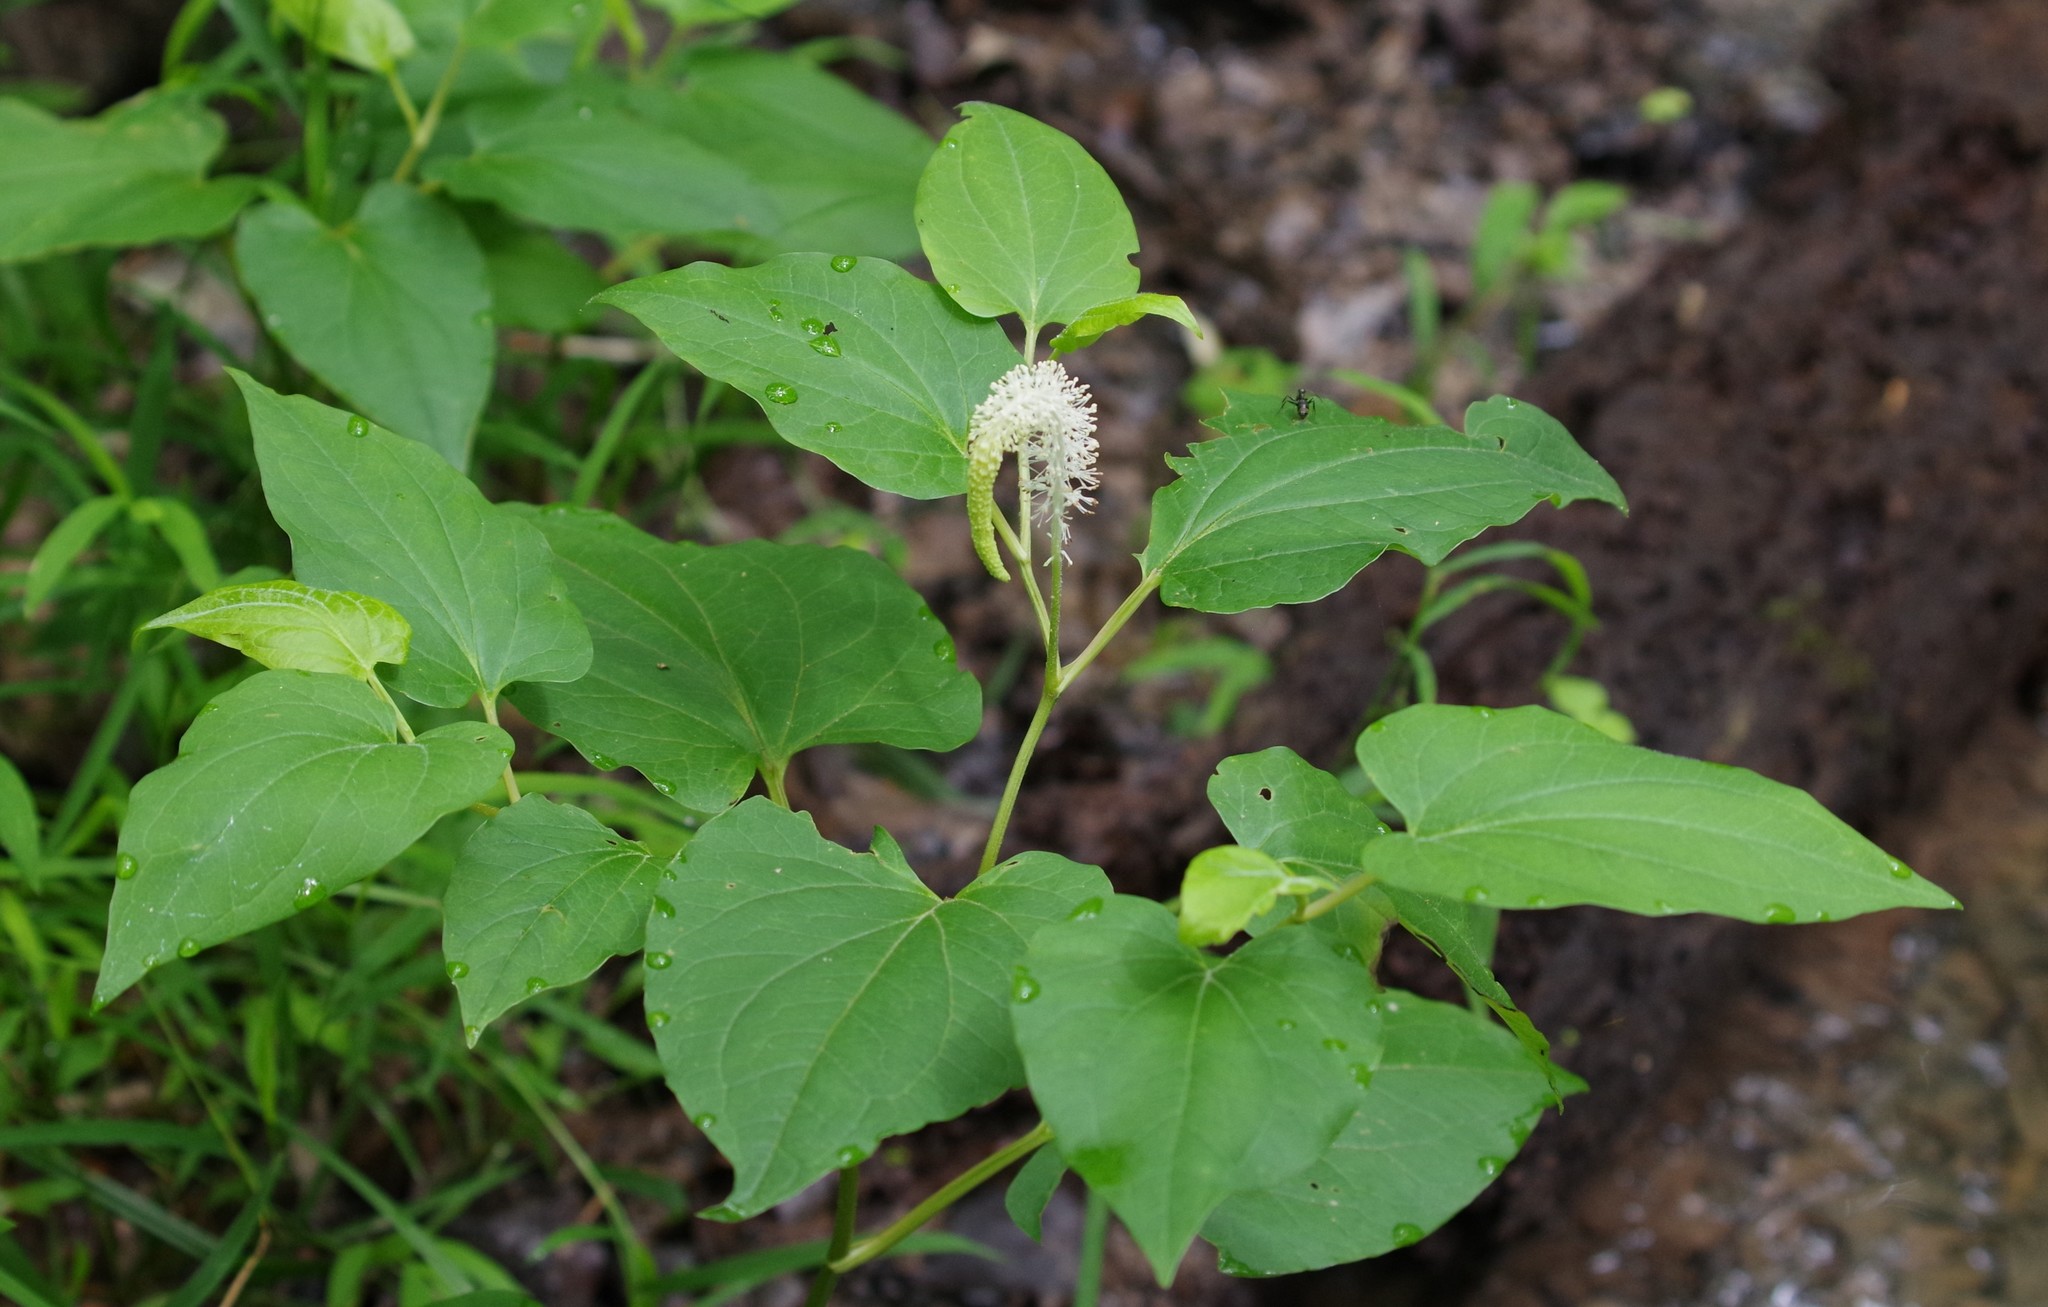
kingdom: Plantae
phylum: Tracheophyta
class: Magnoliopsida
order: Piperales
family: Saururaceae
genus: Saururus
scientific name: Saururus cernuus
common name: Lizard's-tail
